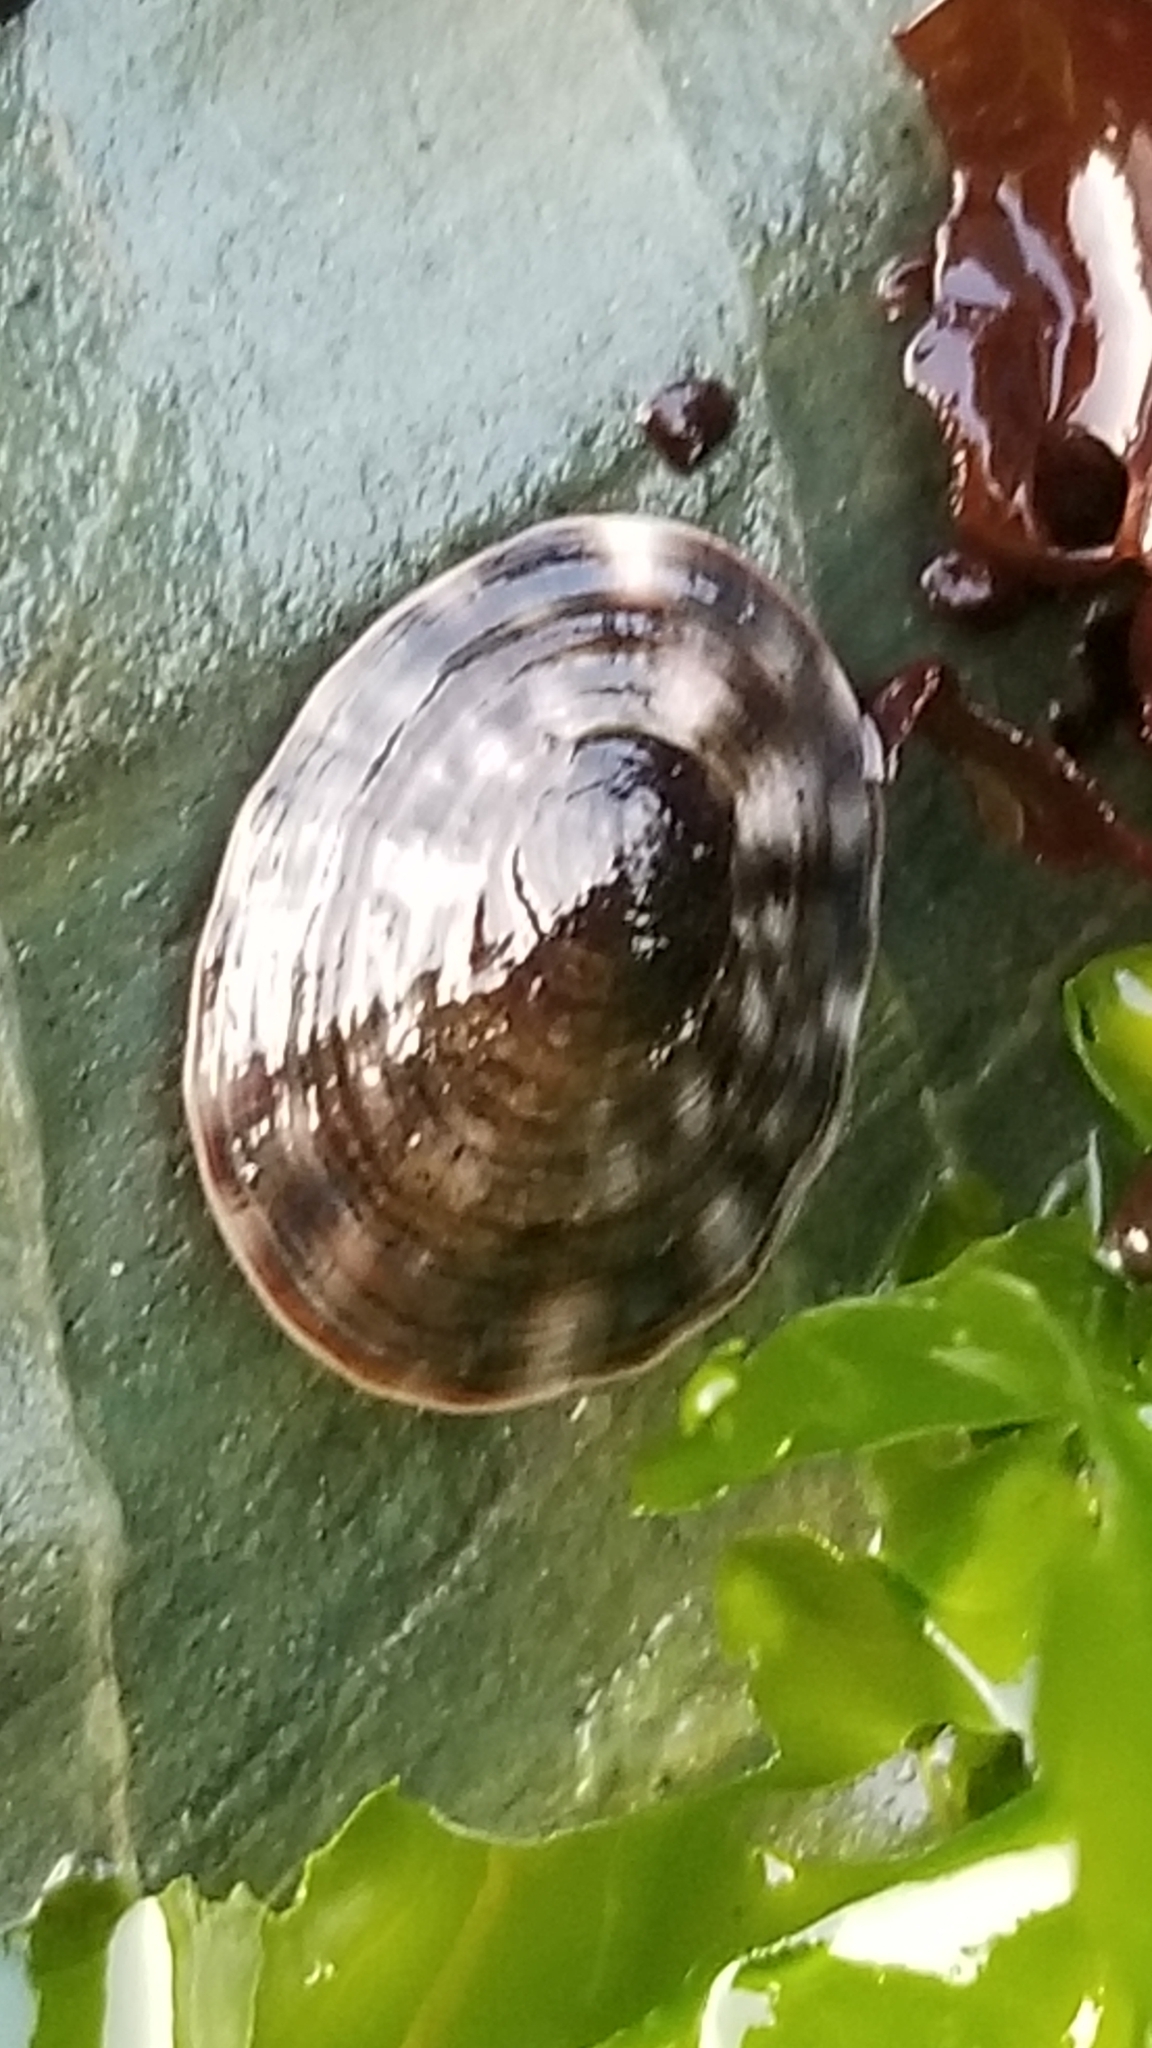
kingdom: Animalia
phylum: Mollusca
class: Gastropoda
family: Lottiidae
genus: Lottia
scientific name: Lottia pelta
